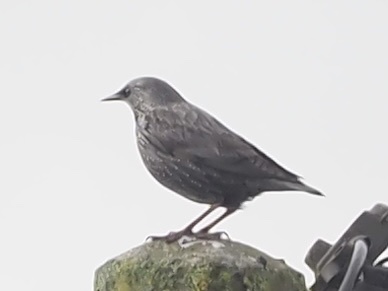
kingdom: Animalia
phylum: Chordata
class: Aves
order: Passeriformes
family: Sturnidae
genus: Sturnus
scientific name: Sturnus unicolor
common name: Spotless starling
